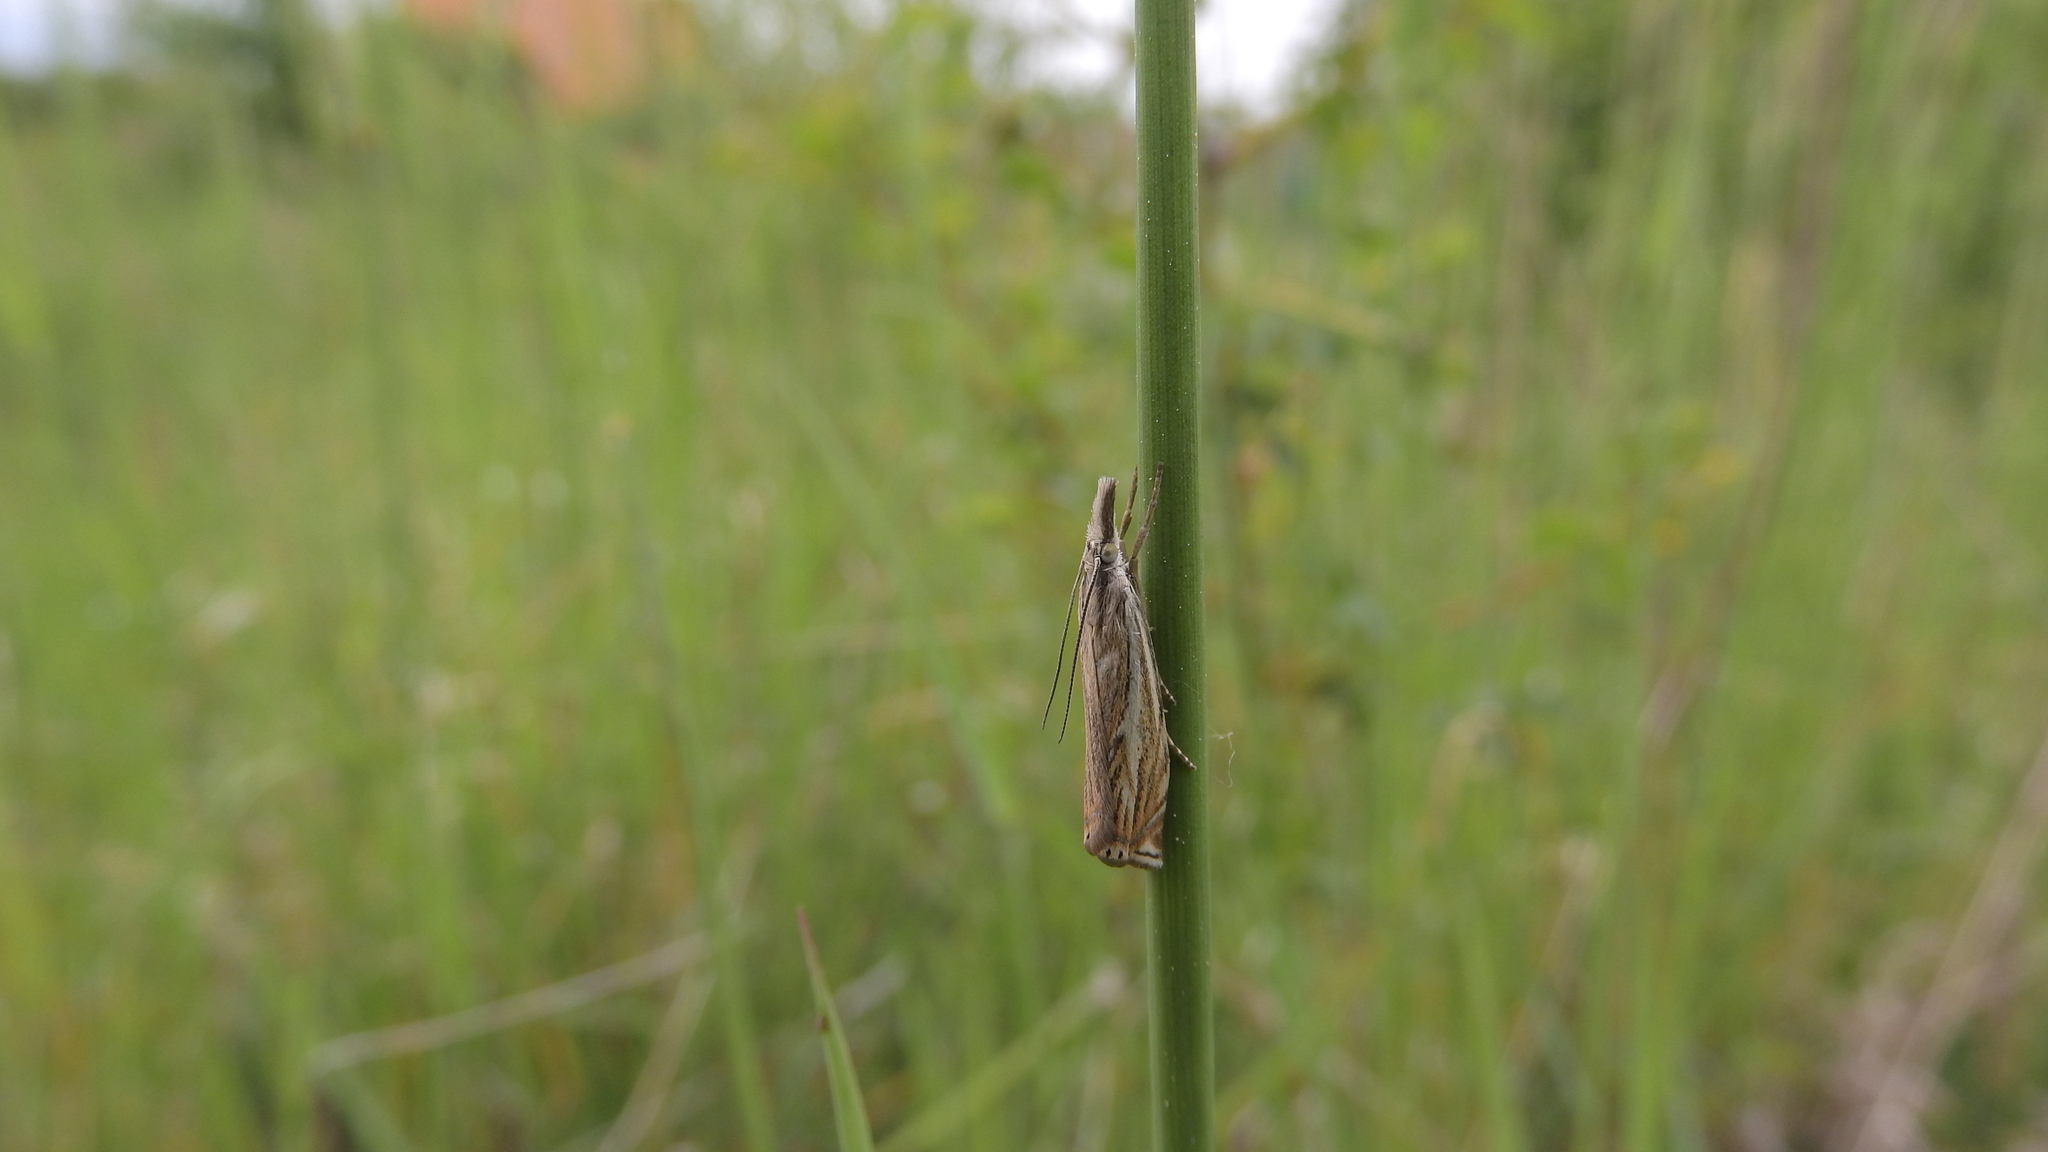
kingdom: Animalia
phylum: Arthropoda
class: Insecta
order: Lepidoptera
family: Crambidae
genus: Crambus
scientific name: Crambus nemorella
